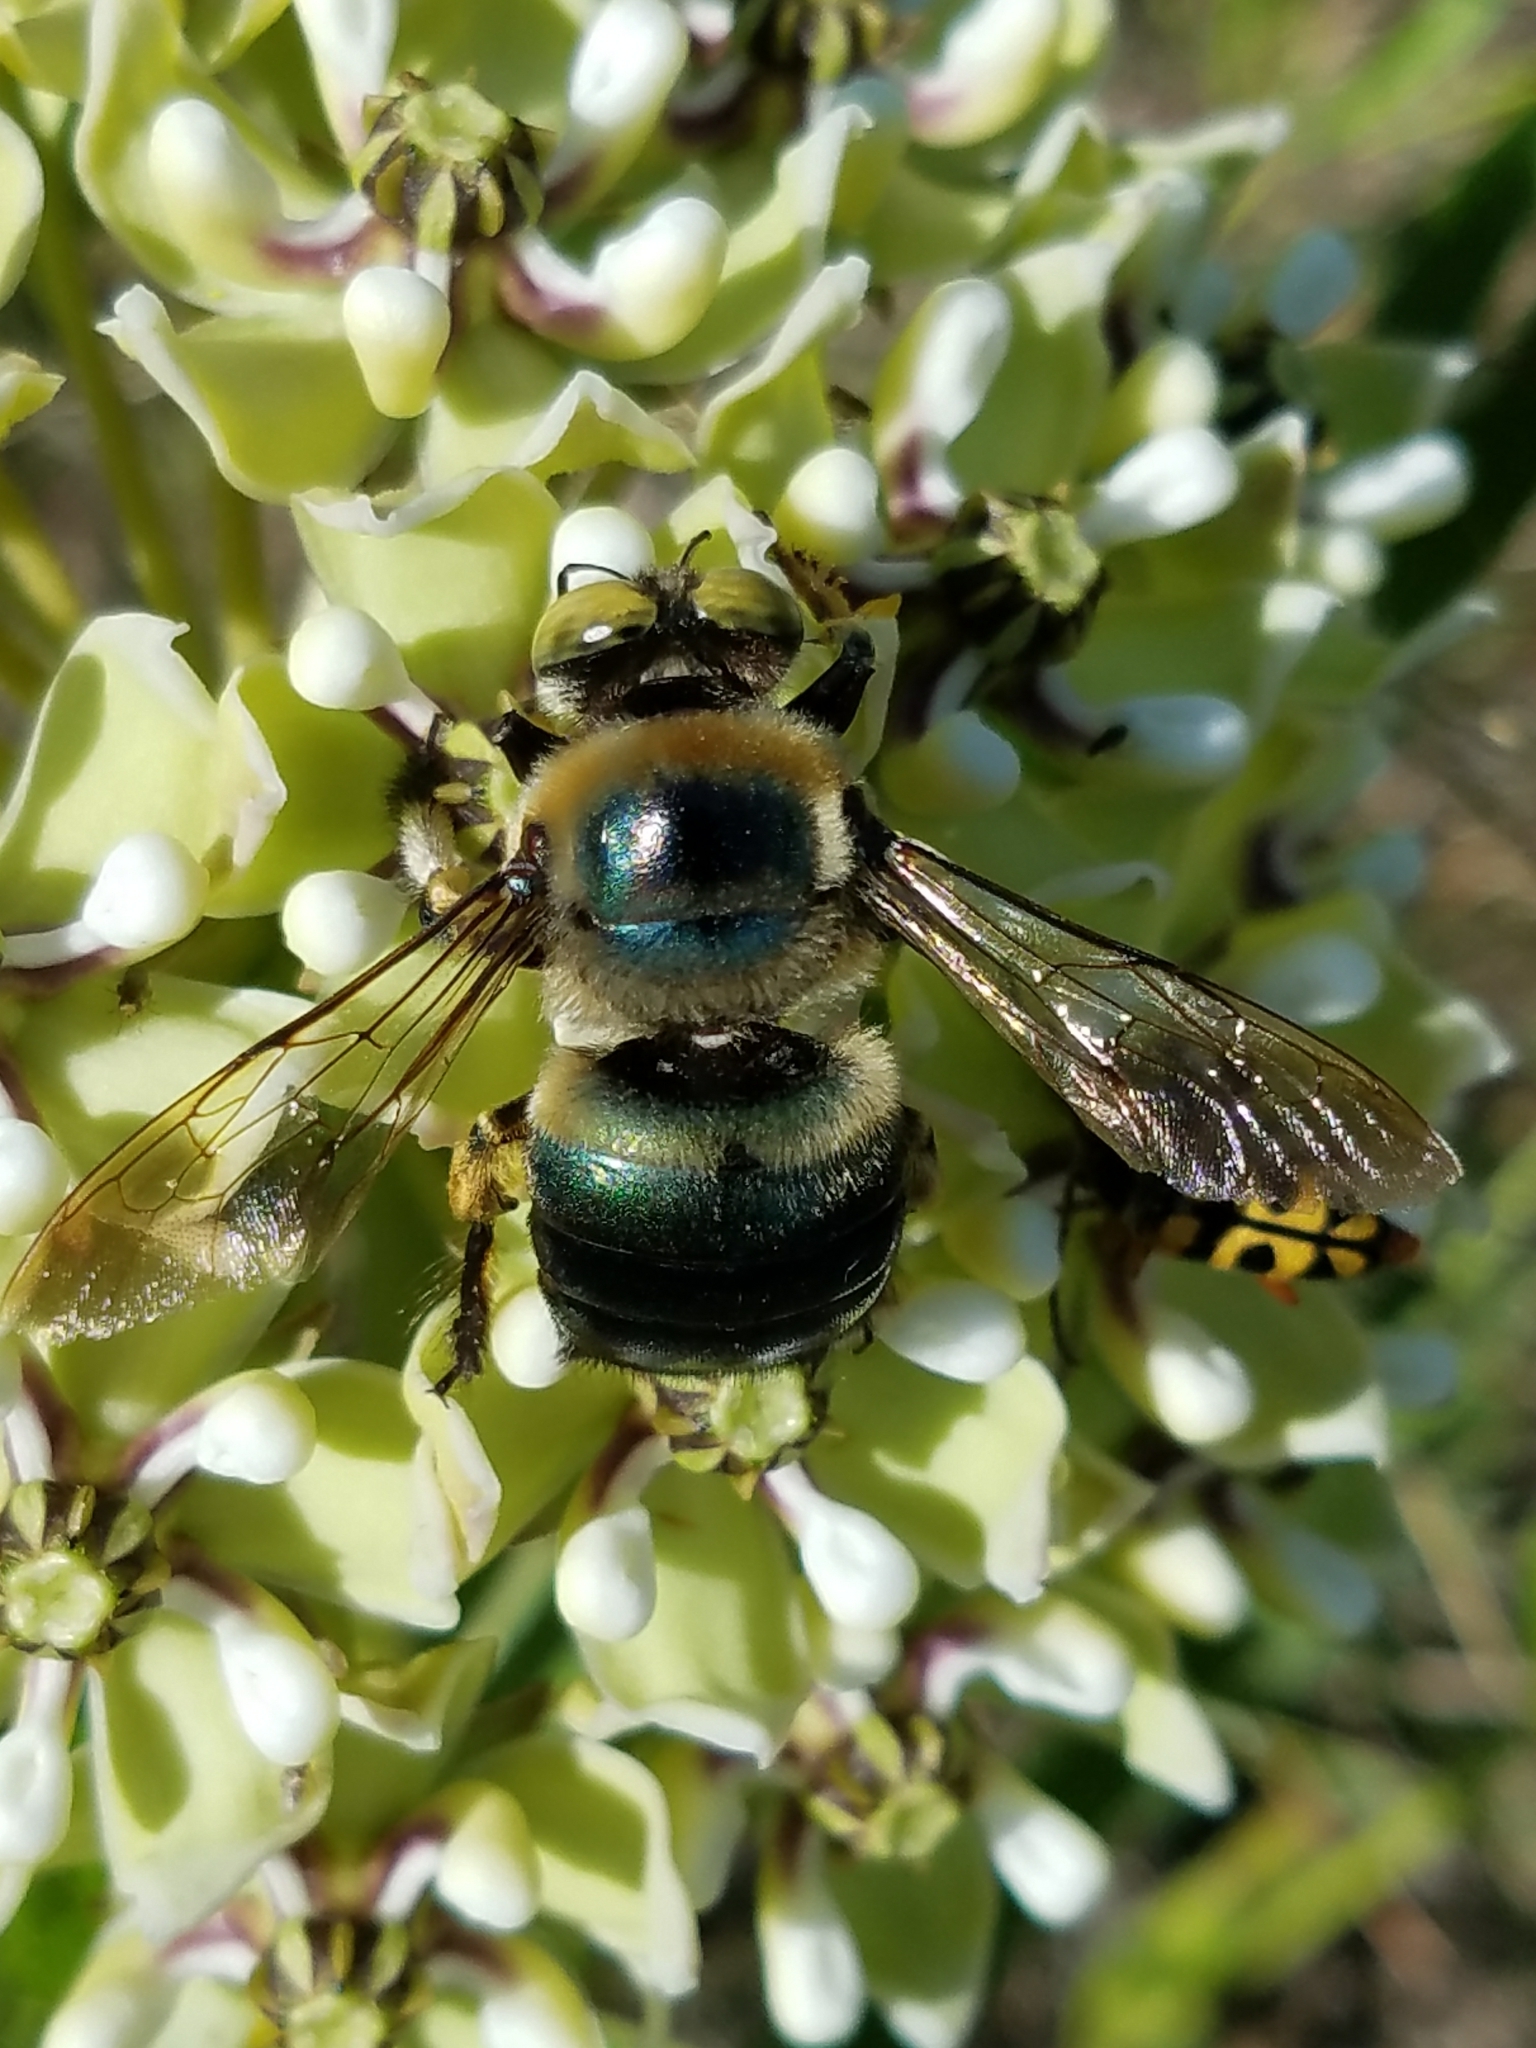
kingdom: Animalia
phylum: Arthropoda
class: Insecta
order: Hymenoptera
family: Apidae
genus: Xylocopa
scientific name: Xylocopa micans
